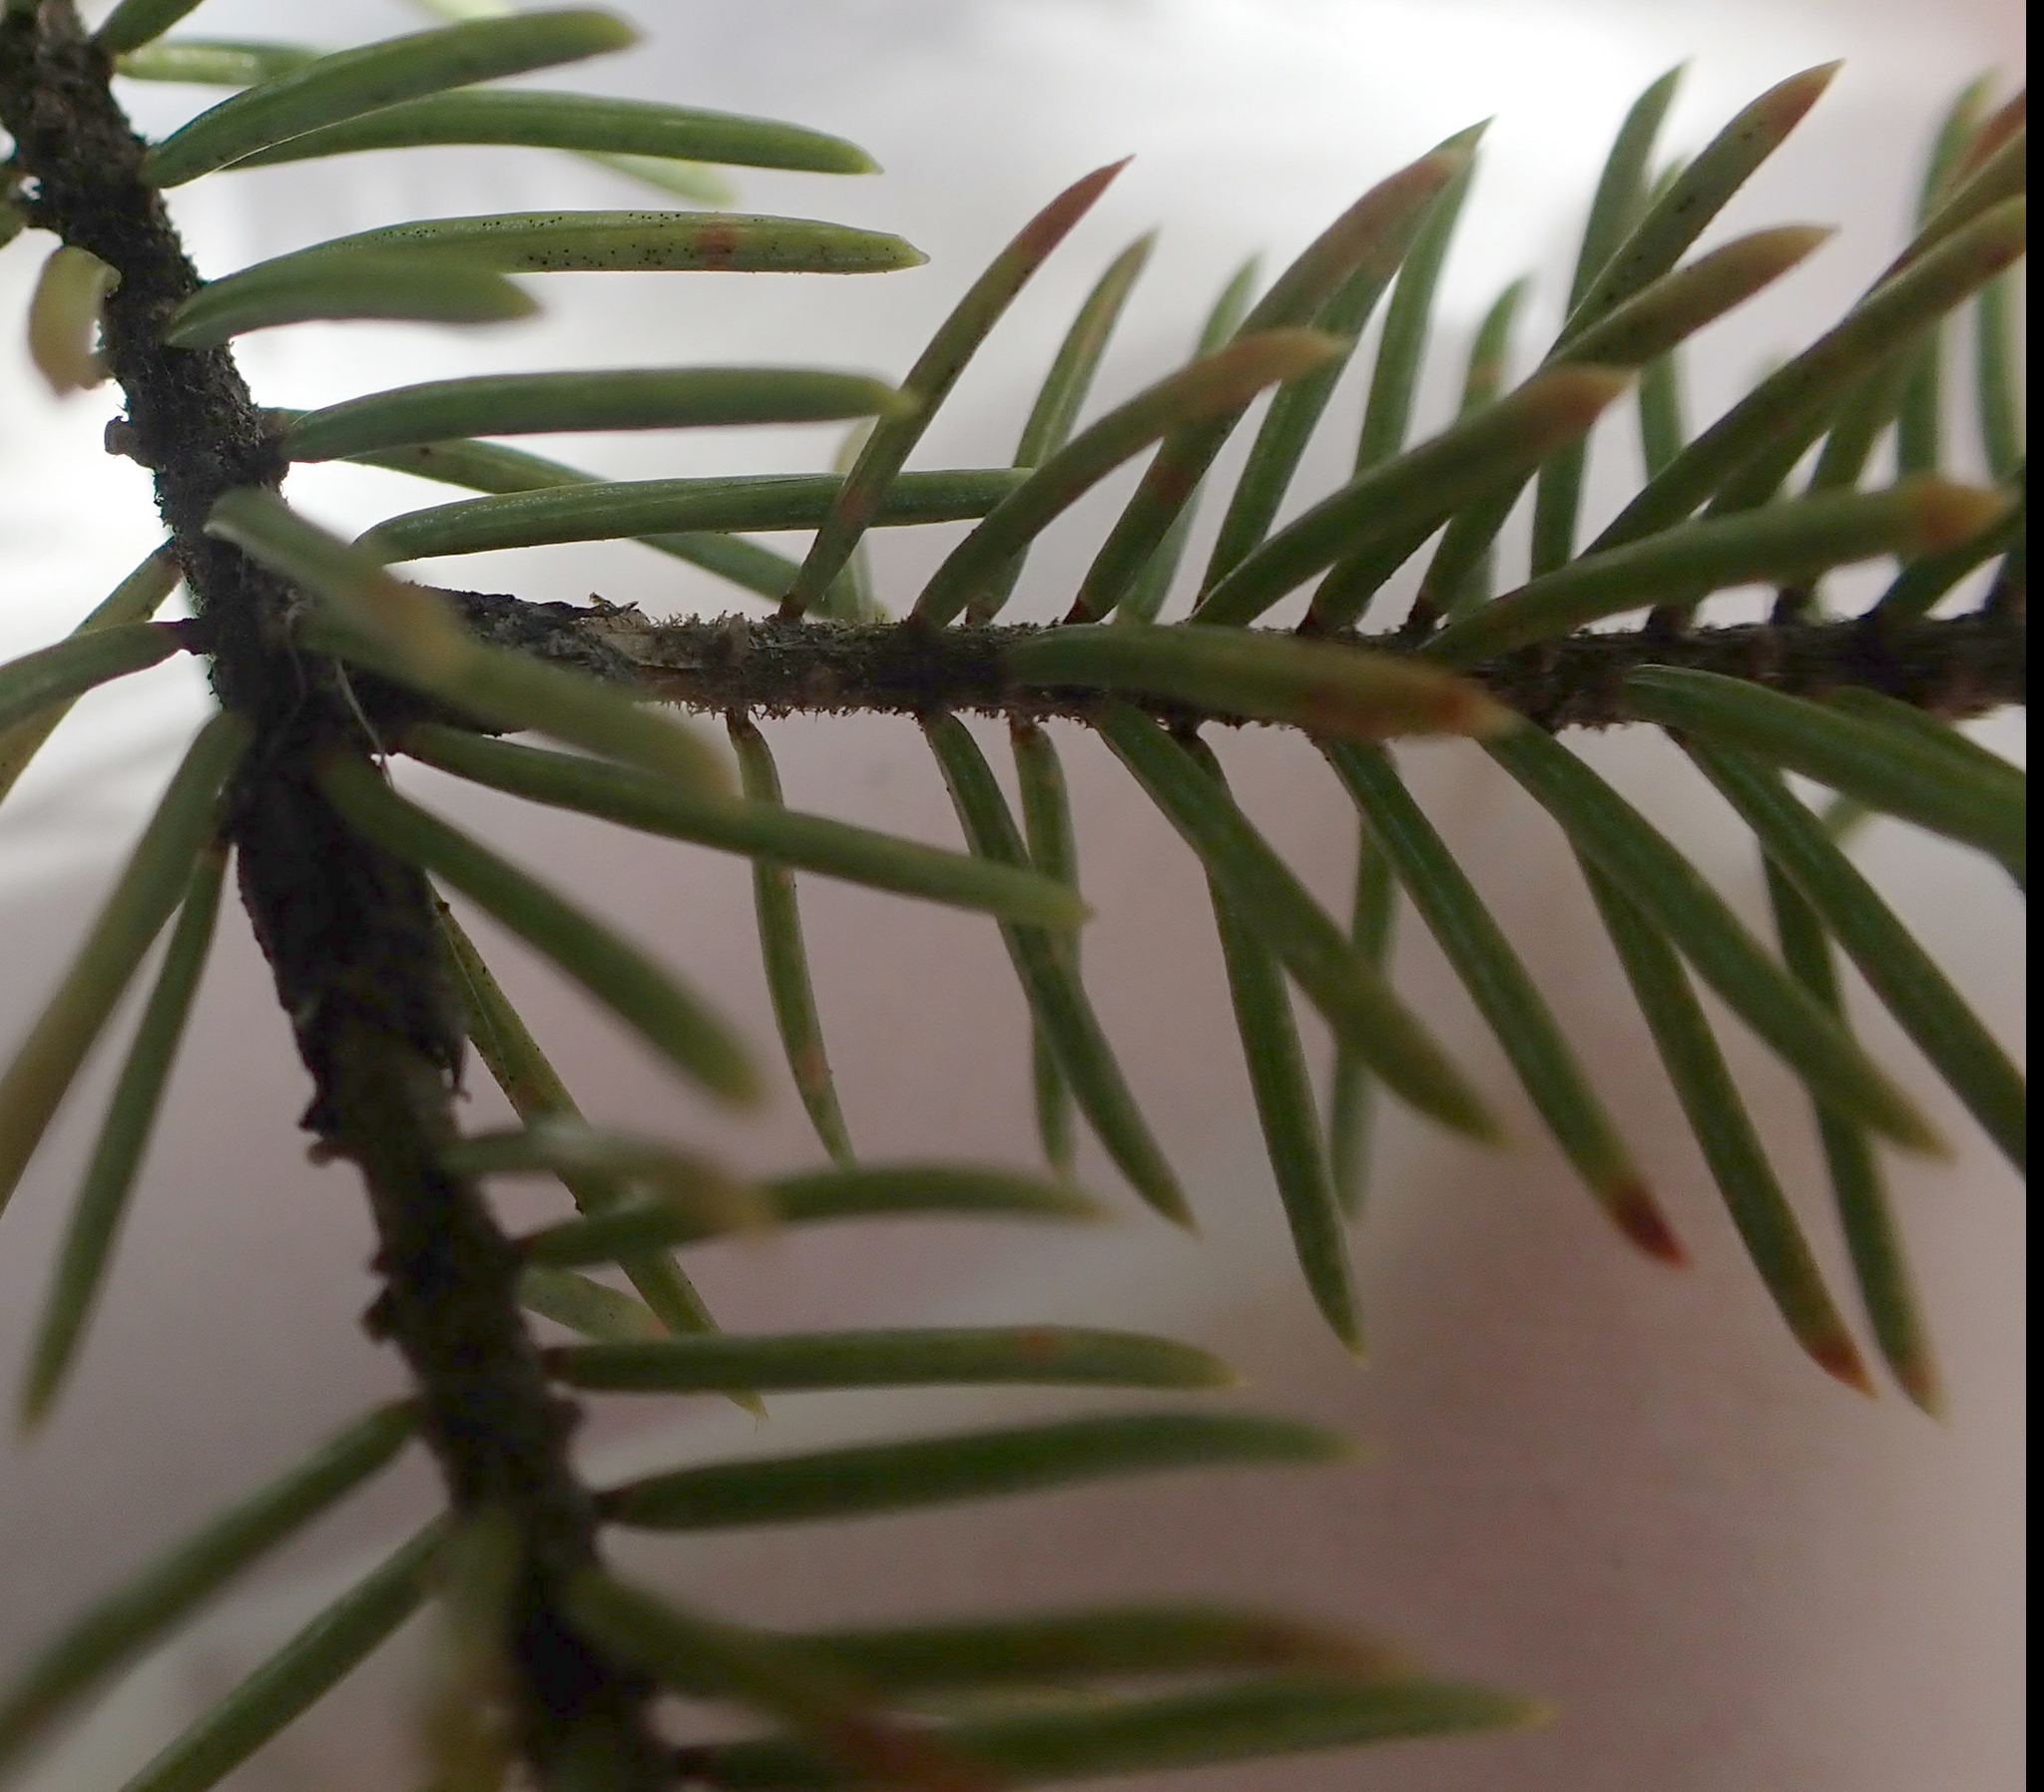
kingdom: Plantae
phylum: Tracheophyta
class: Pinopsida
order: Pinales
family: Pinaceae
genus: Picea
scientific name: Picea mariana
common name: Black spruce
